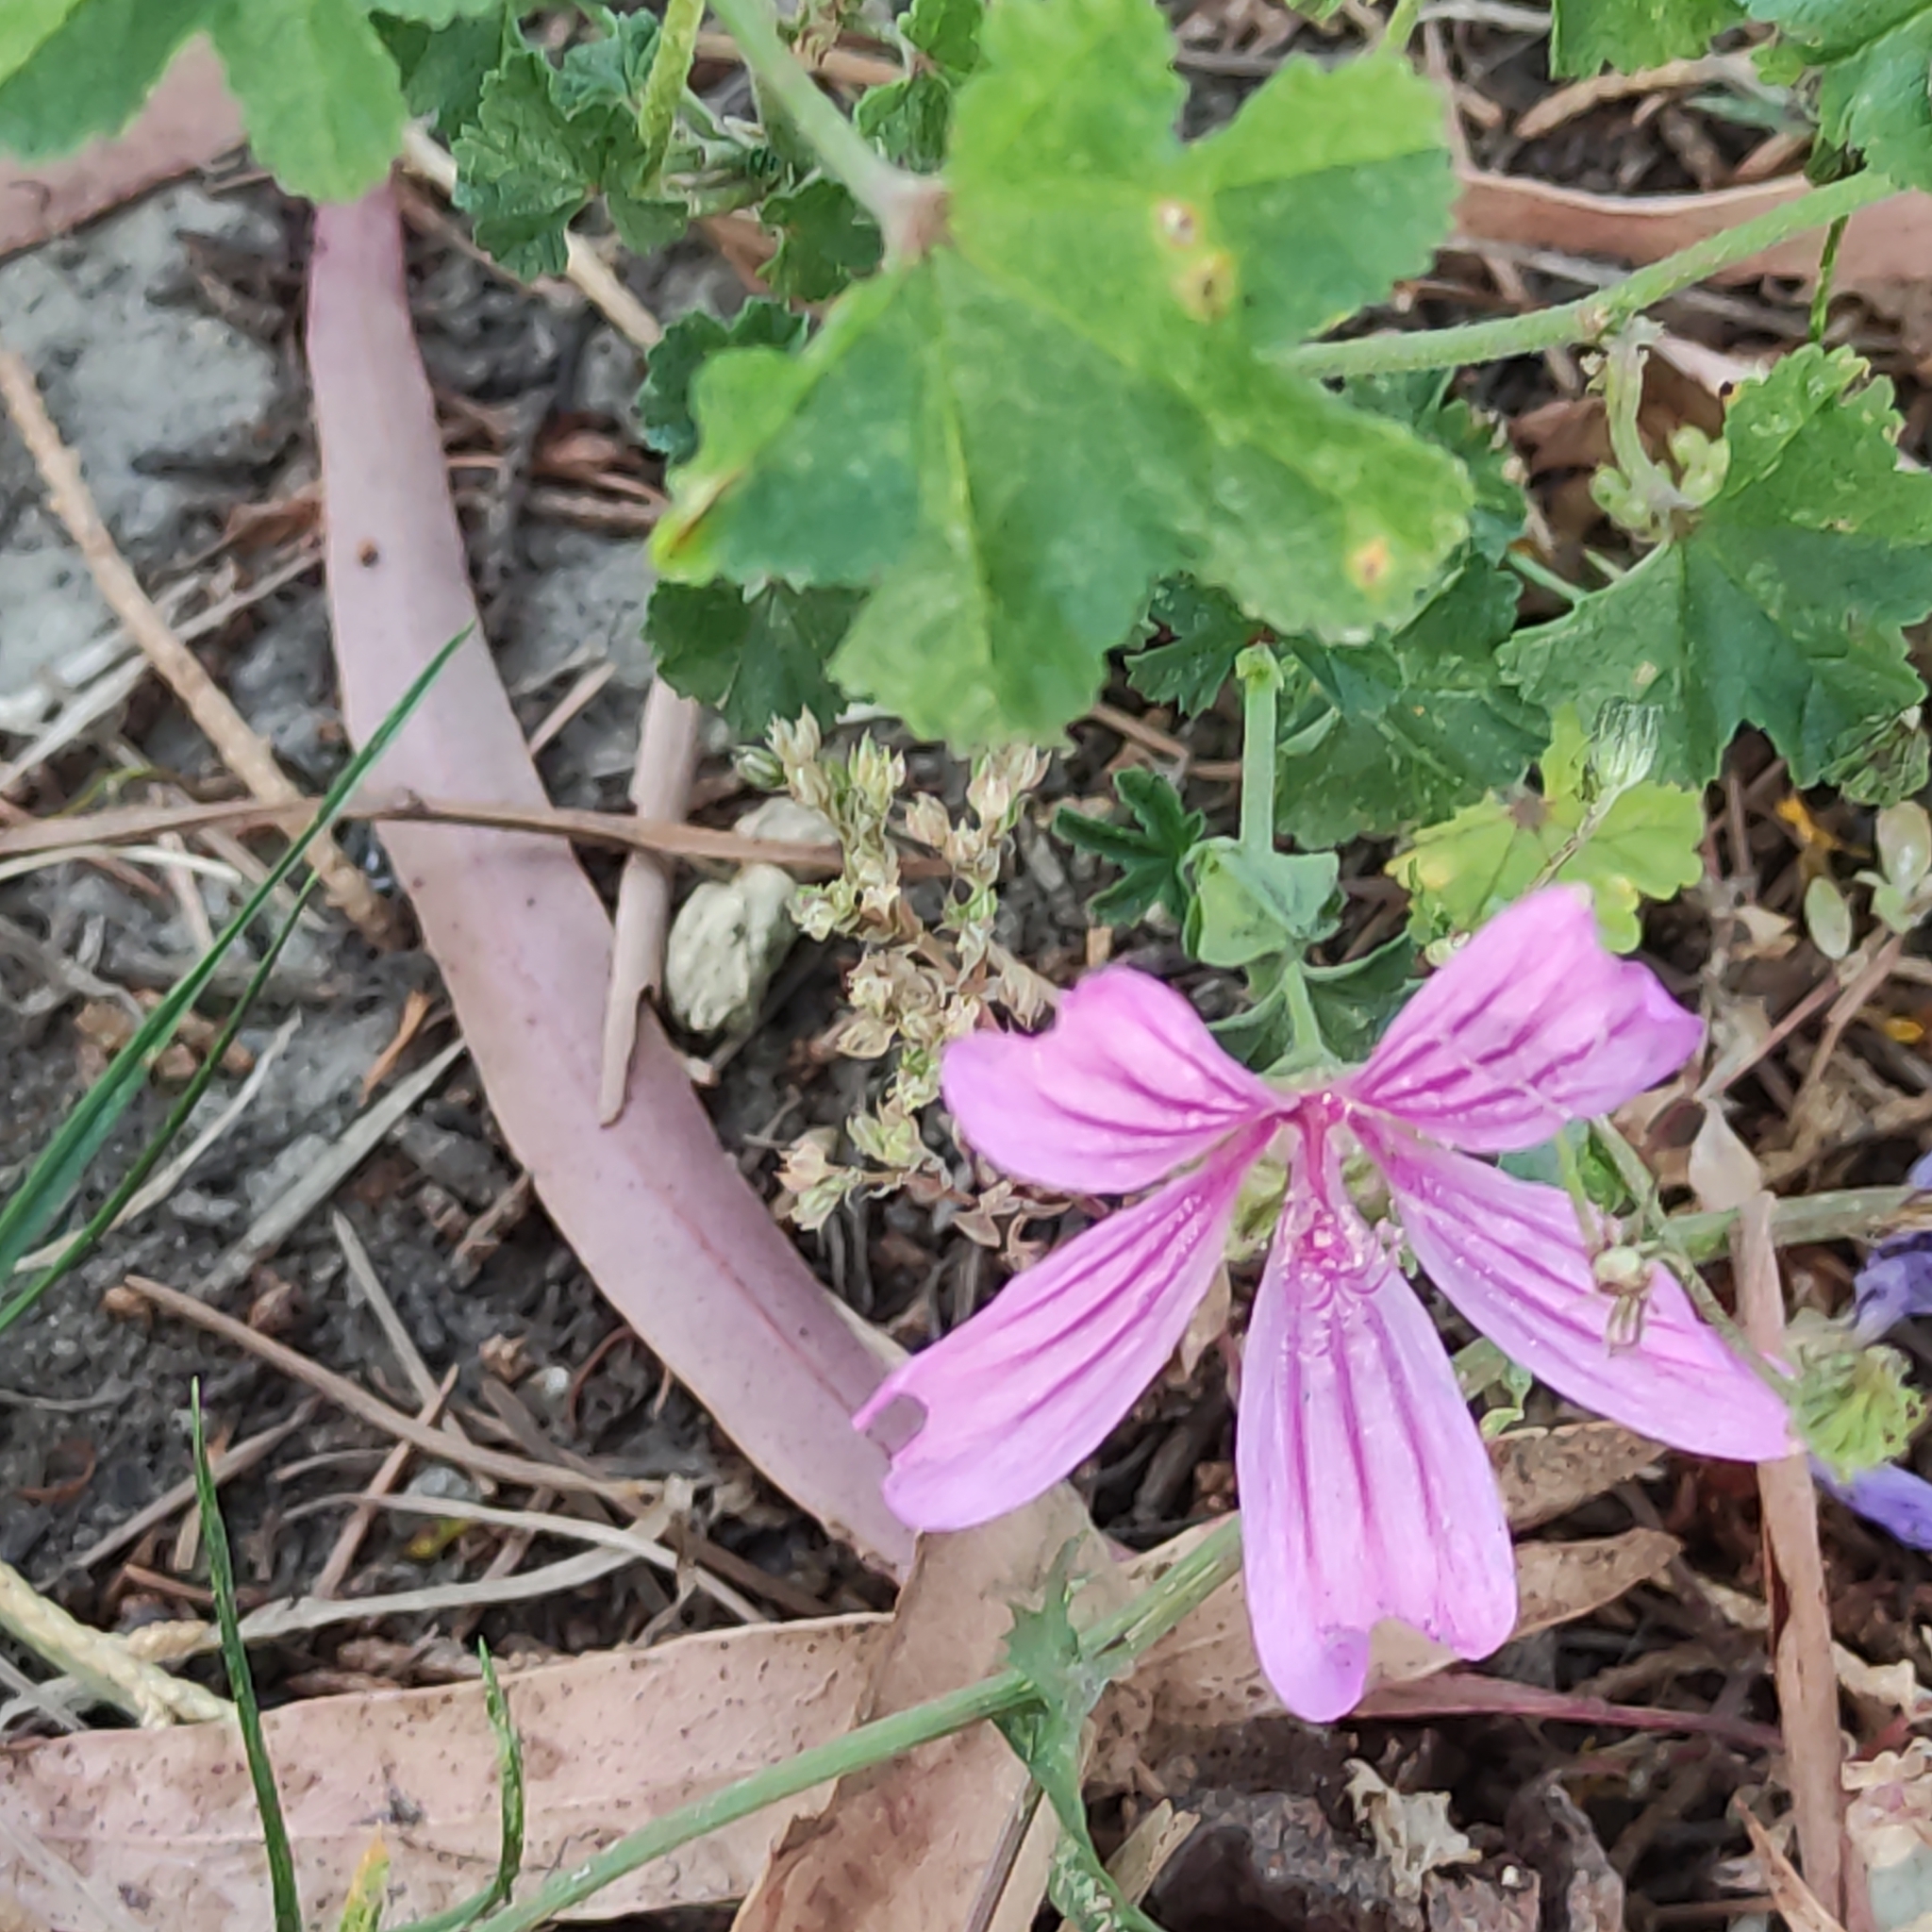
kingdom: Plantae
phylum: Tracheophyta
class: Magnoliopsida
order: Malvales
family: Malvaceae
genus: Malva
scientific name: Malva sylvestris
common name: Common mallow
